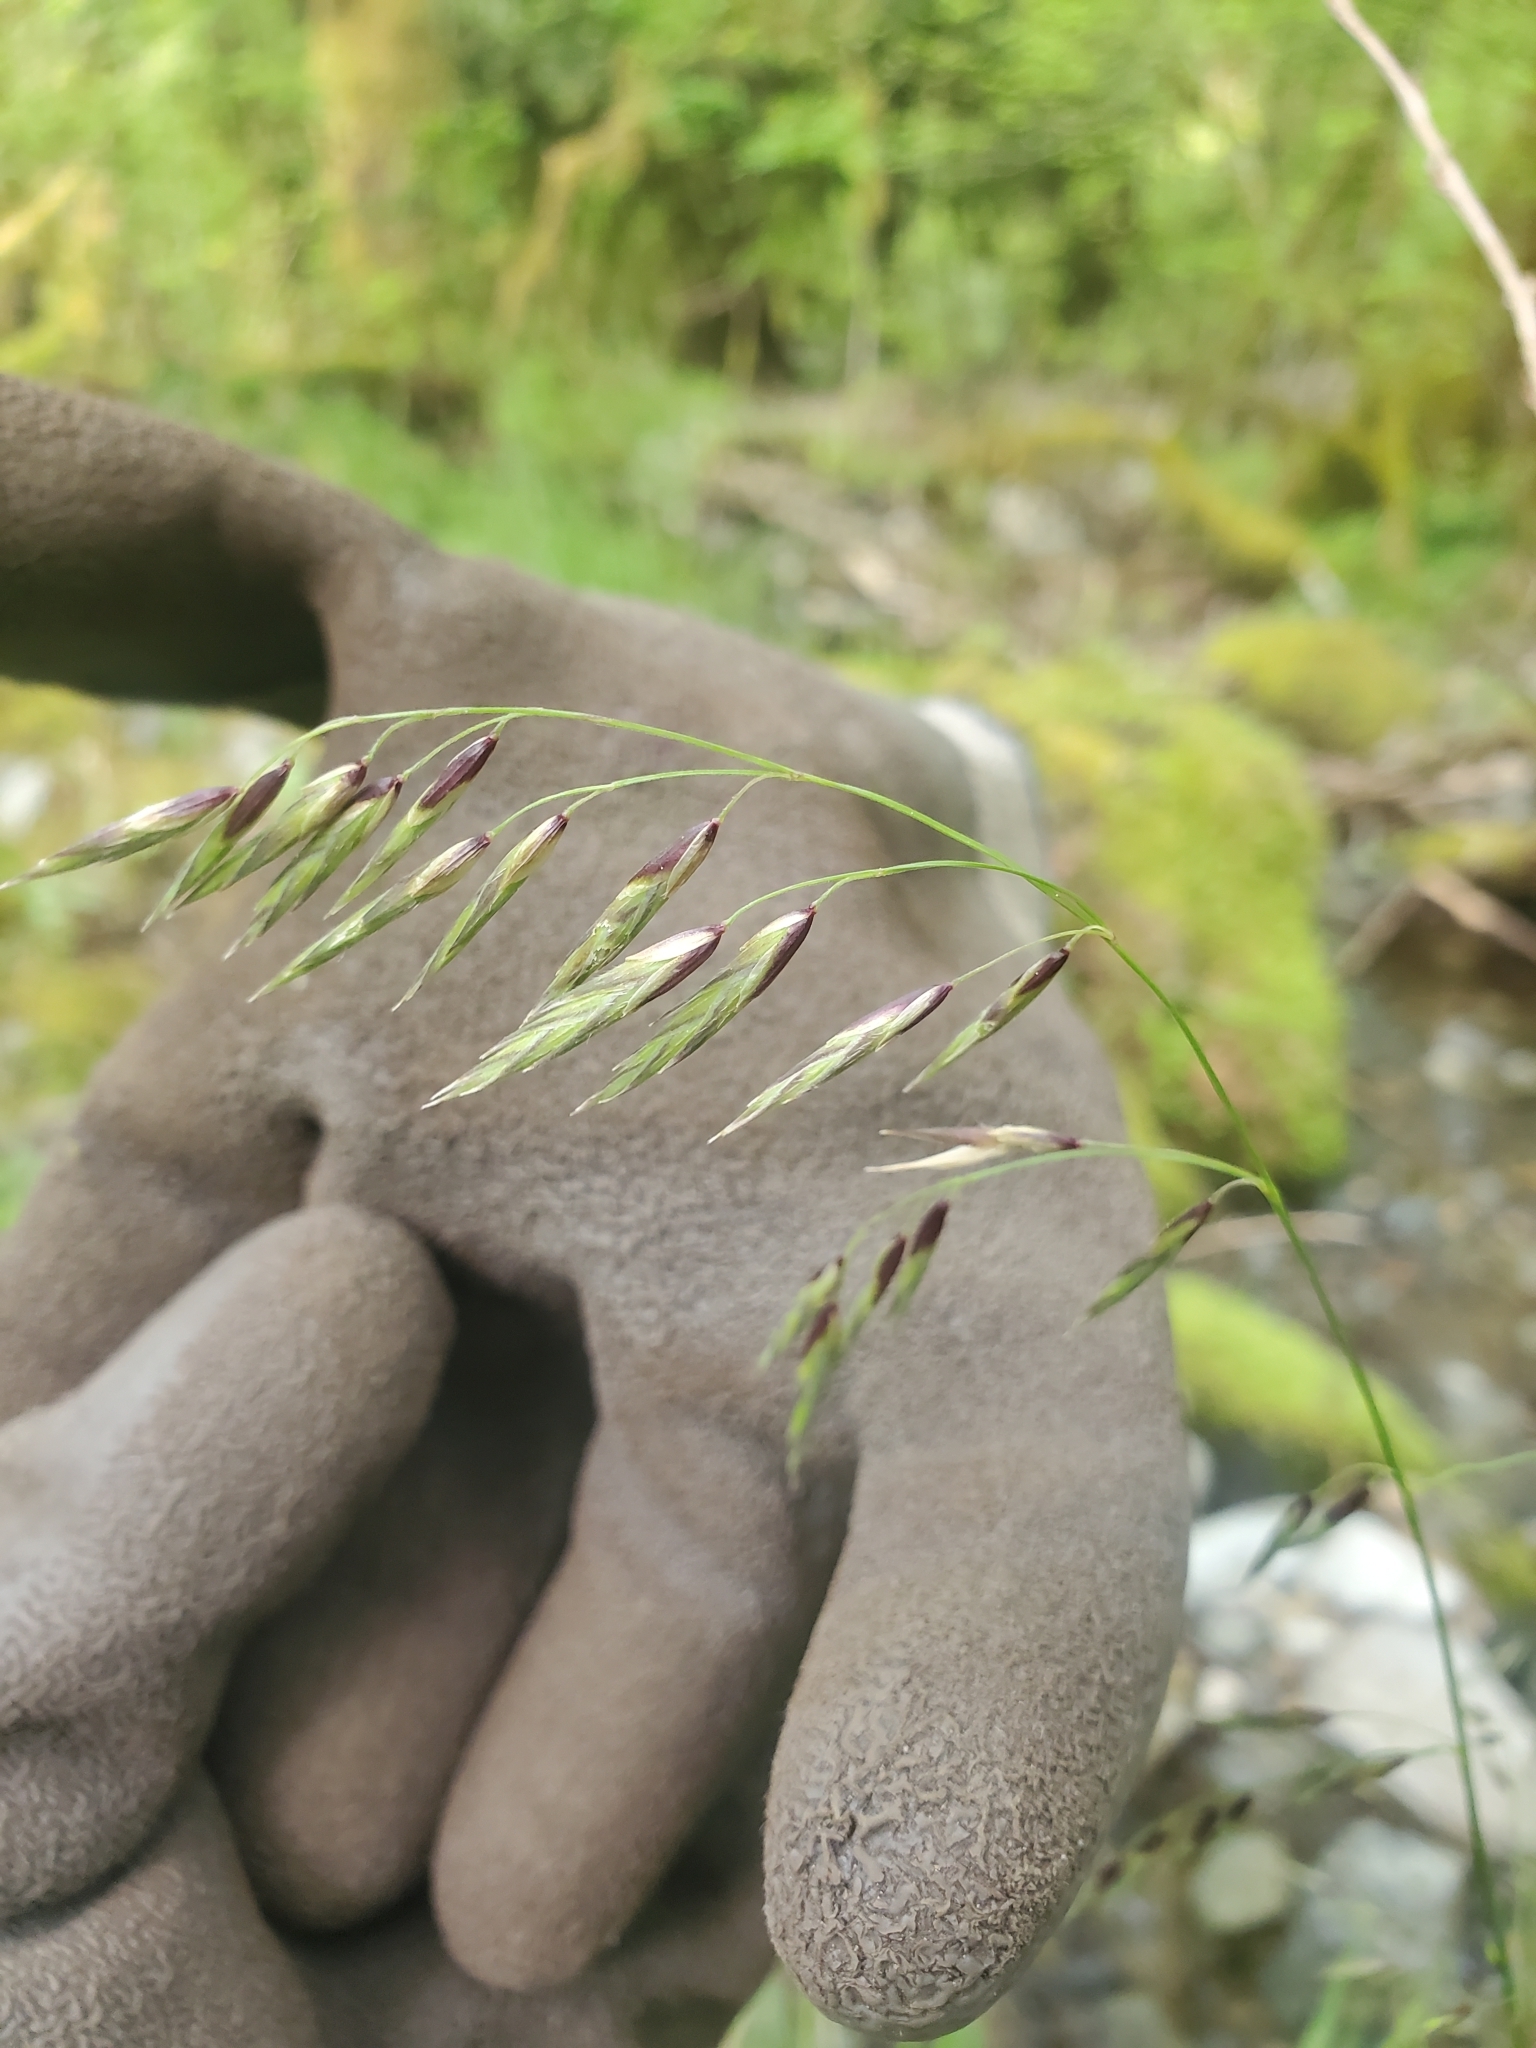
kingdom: Plantae
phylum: Tracheophyta
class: Liliopsida
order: Poales
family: Poaceae
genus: Melica
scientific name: Melica subulata
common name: Tapered oniongrass
